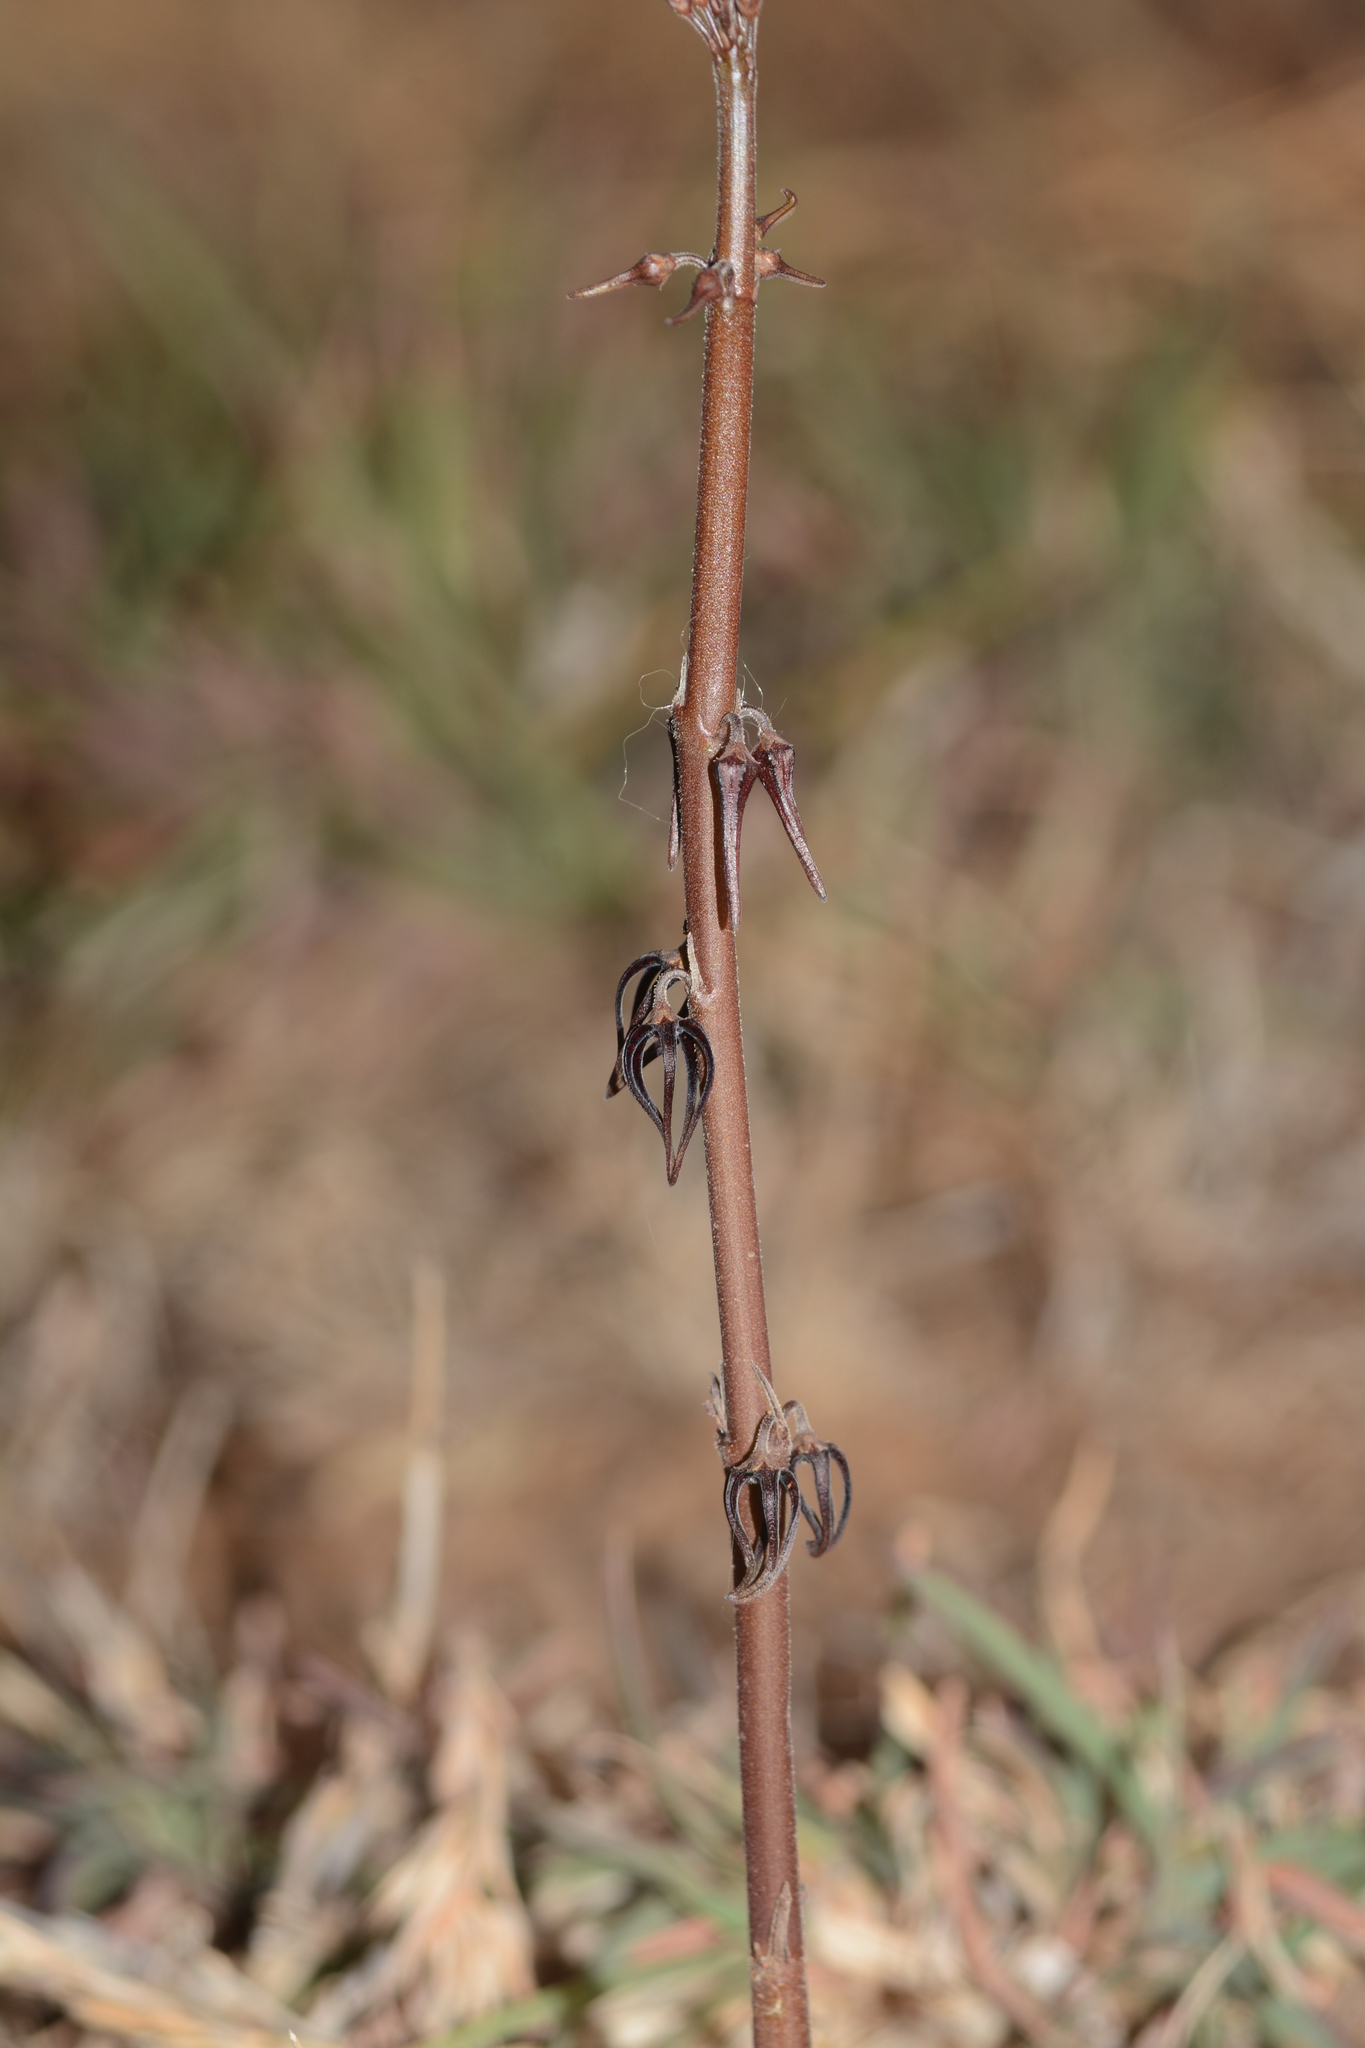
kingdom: Plantae
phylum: Tracheophyta
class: Magnoliopsida
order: Gentianales
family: Apocynaceae
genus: Ceropegia
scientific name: Ceropegia kolarensis
